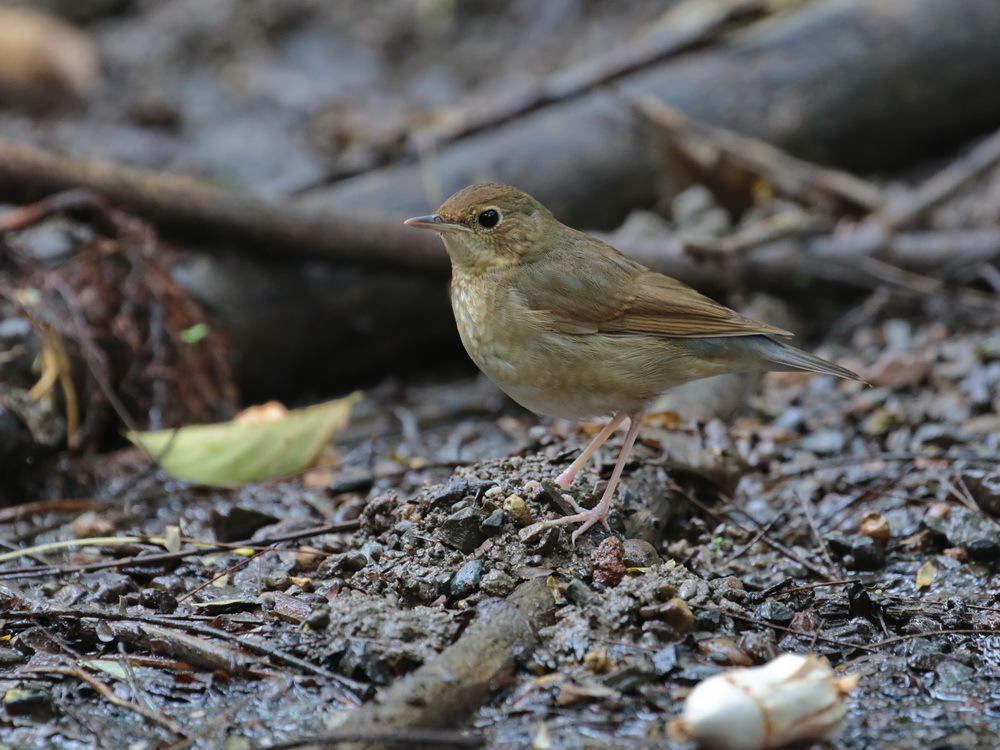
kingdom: Animalia
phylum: Chordata
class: Aves
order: Passeriformes
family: Muscicapidae
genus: Luscinia
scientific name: Luscinia cyane
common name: Siberian blue robin
